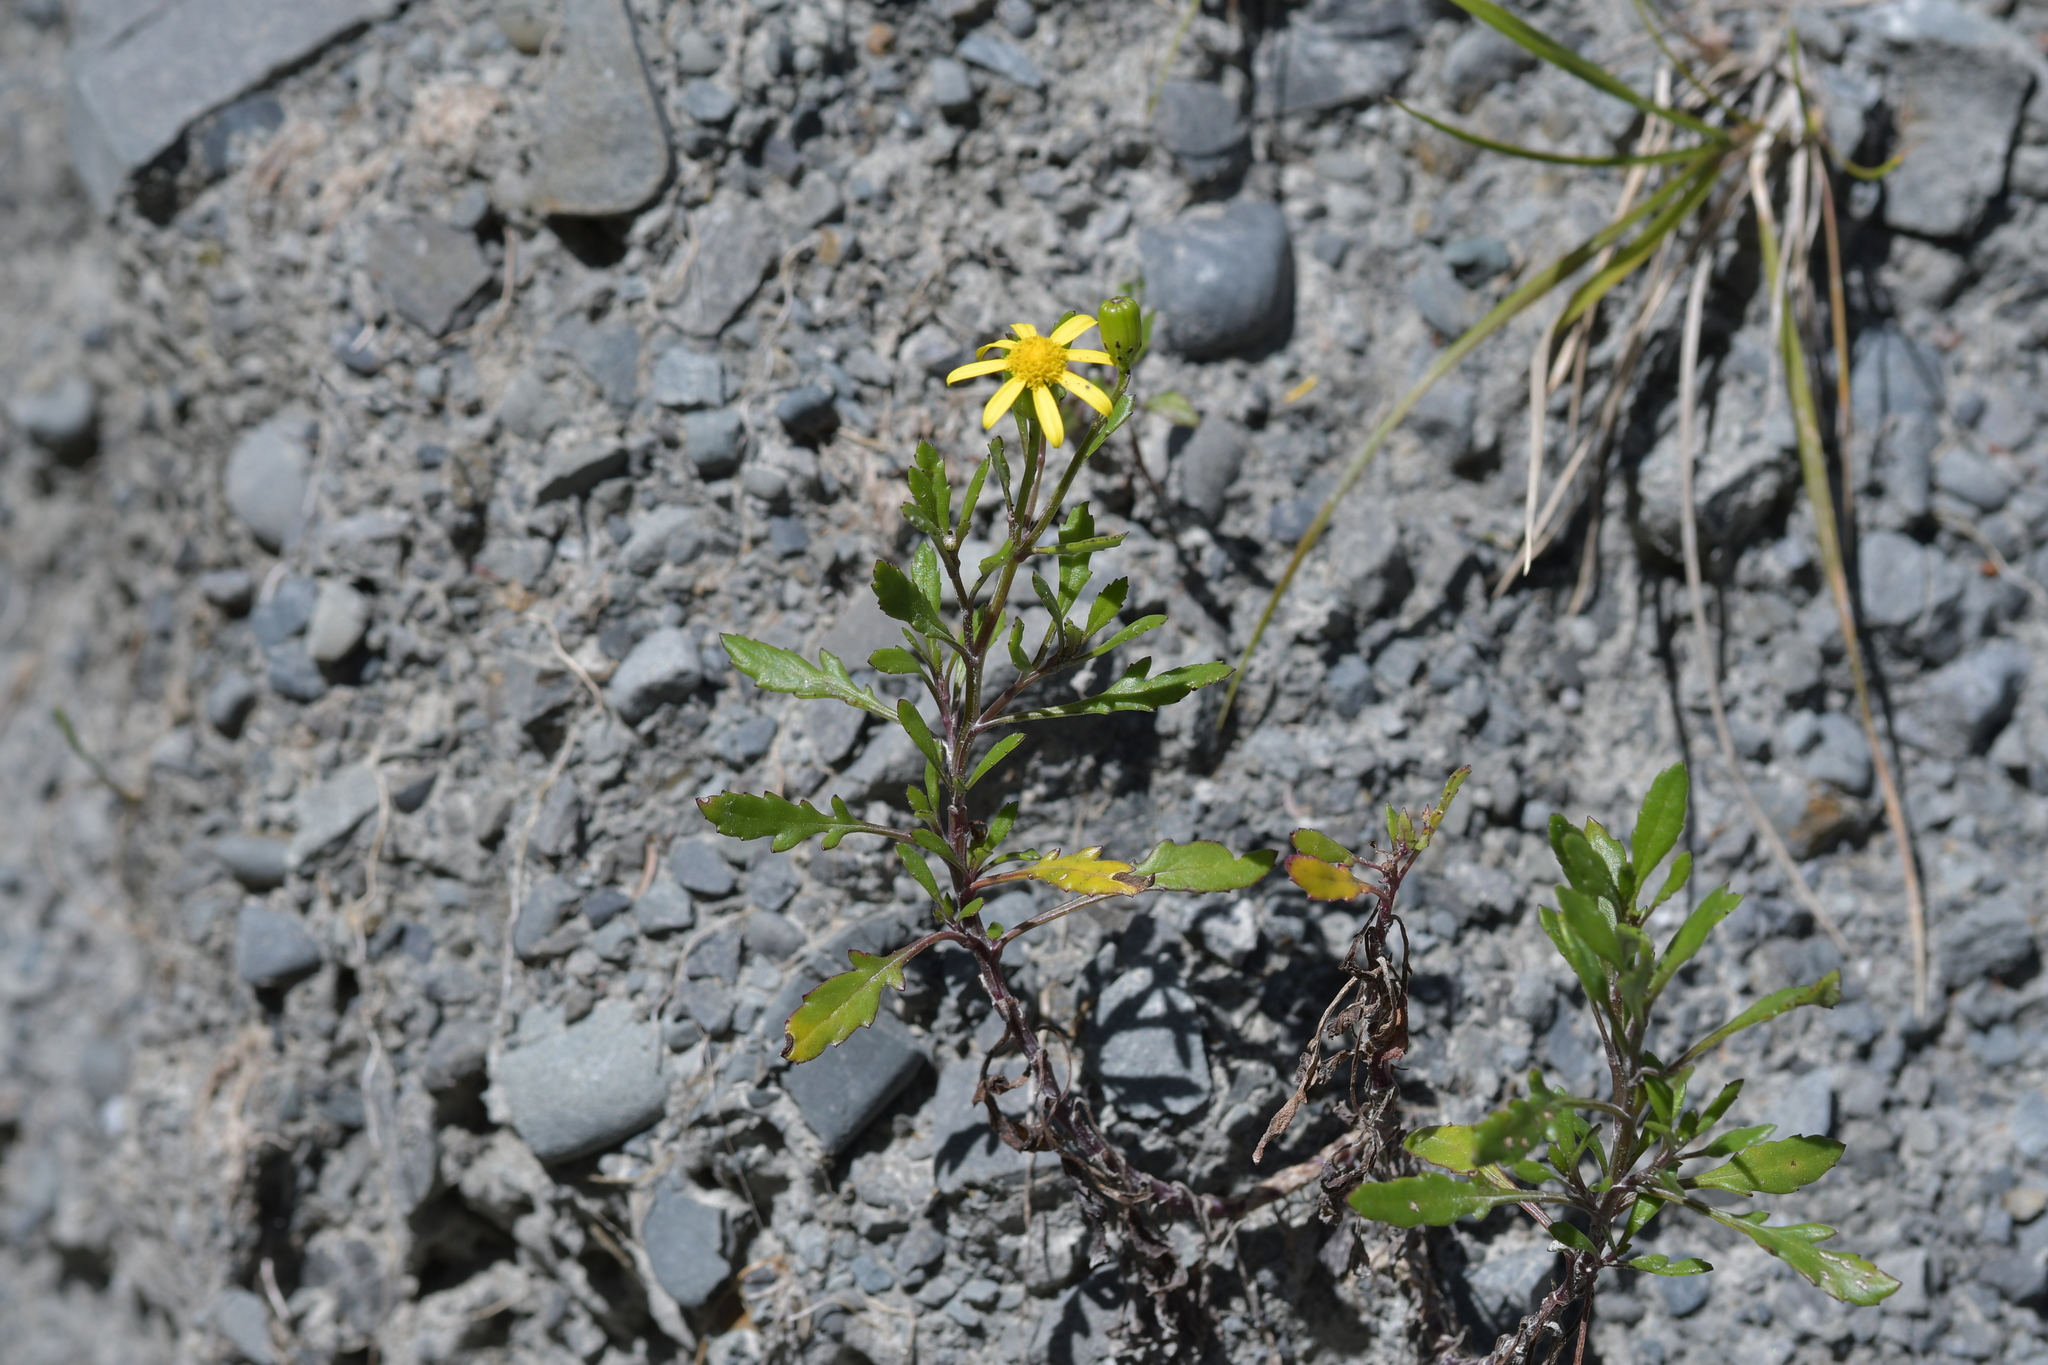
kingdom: Plantae
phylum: Tracheophyta
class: Magnoliopsida
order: Asterales
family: Asteraceae
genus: Senecio
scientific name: Senecio skirrhodon
